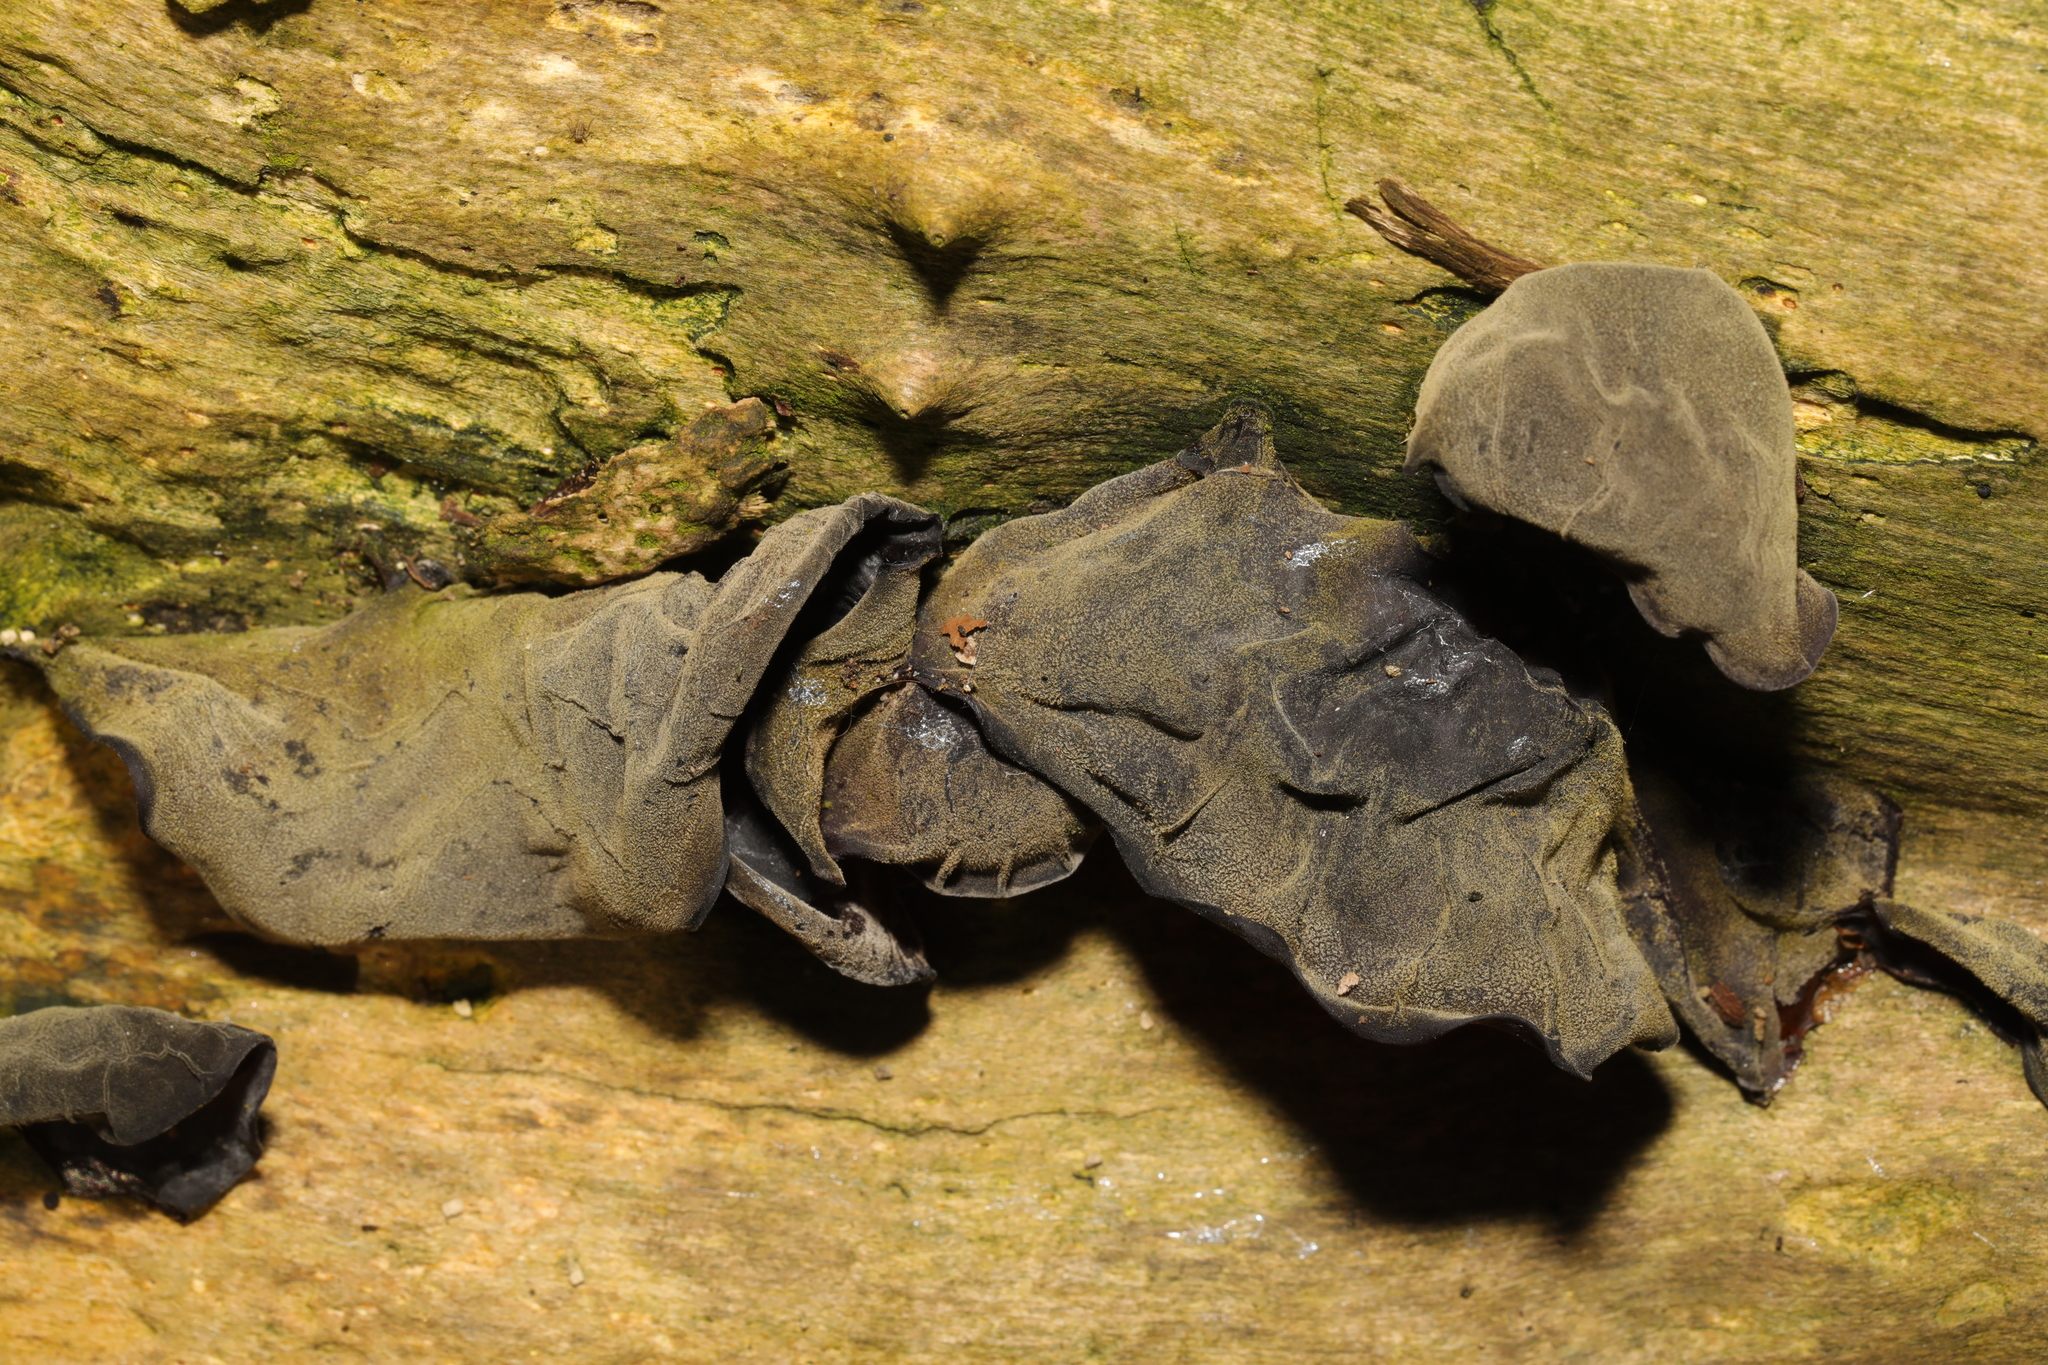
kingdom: Fungi
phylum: Basidiomycota
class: Agaricomycetes
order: Auriculariales
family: Auriculariaceae
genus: Auricularia
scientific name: Auricularia auricula-judae
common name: Jelly ear
